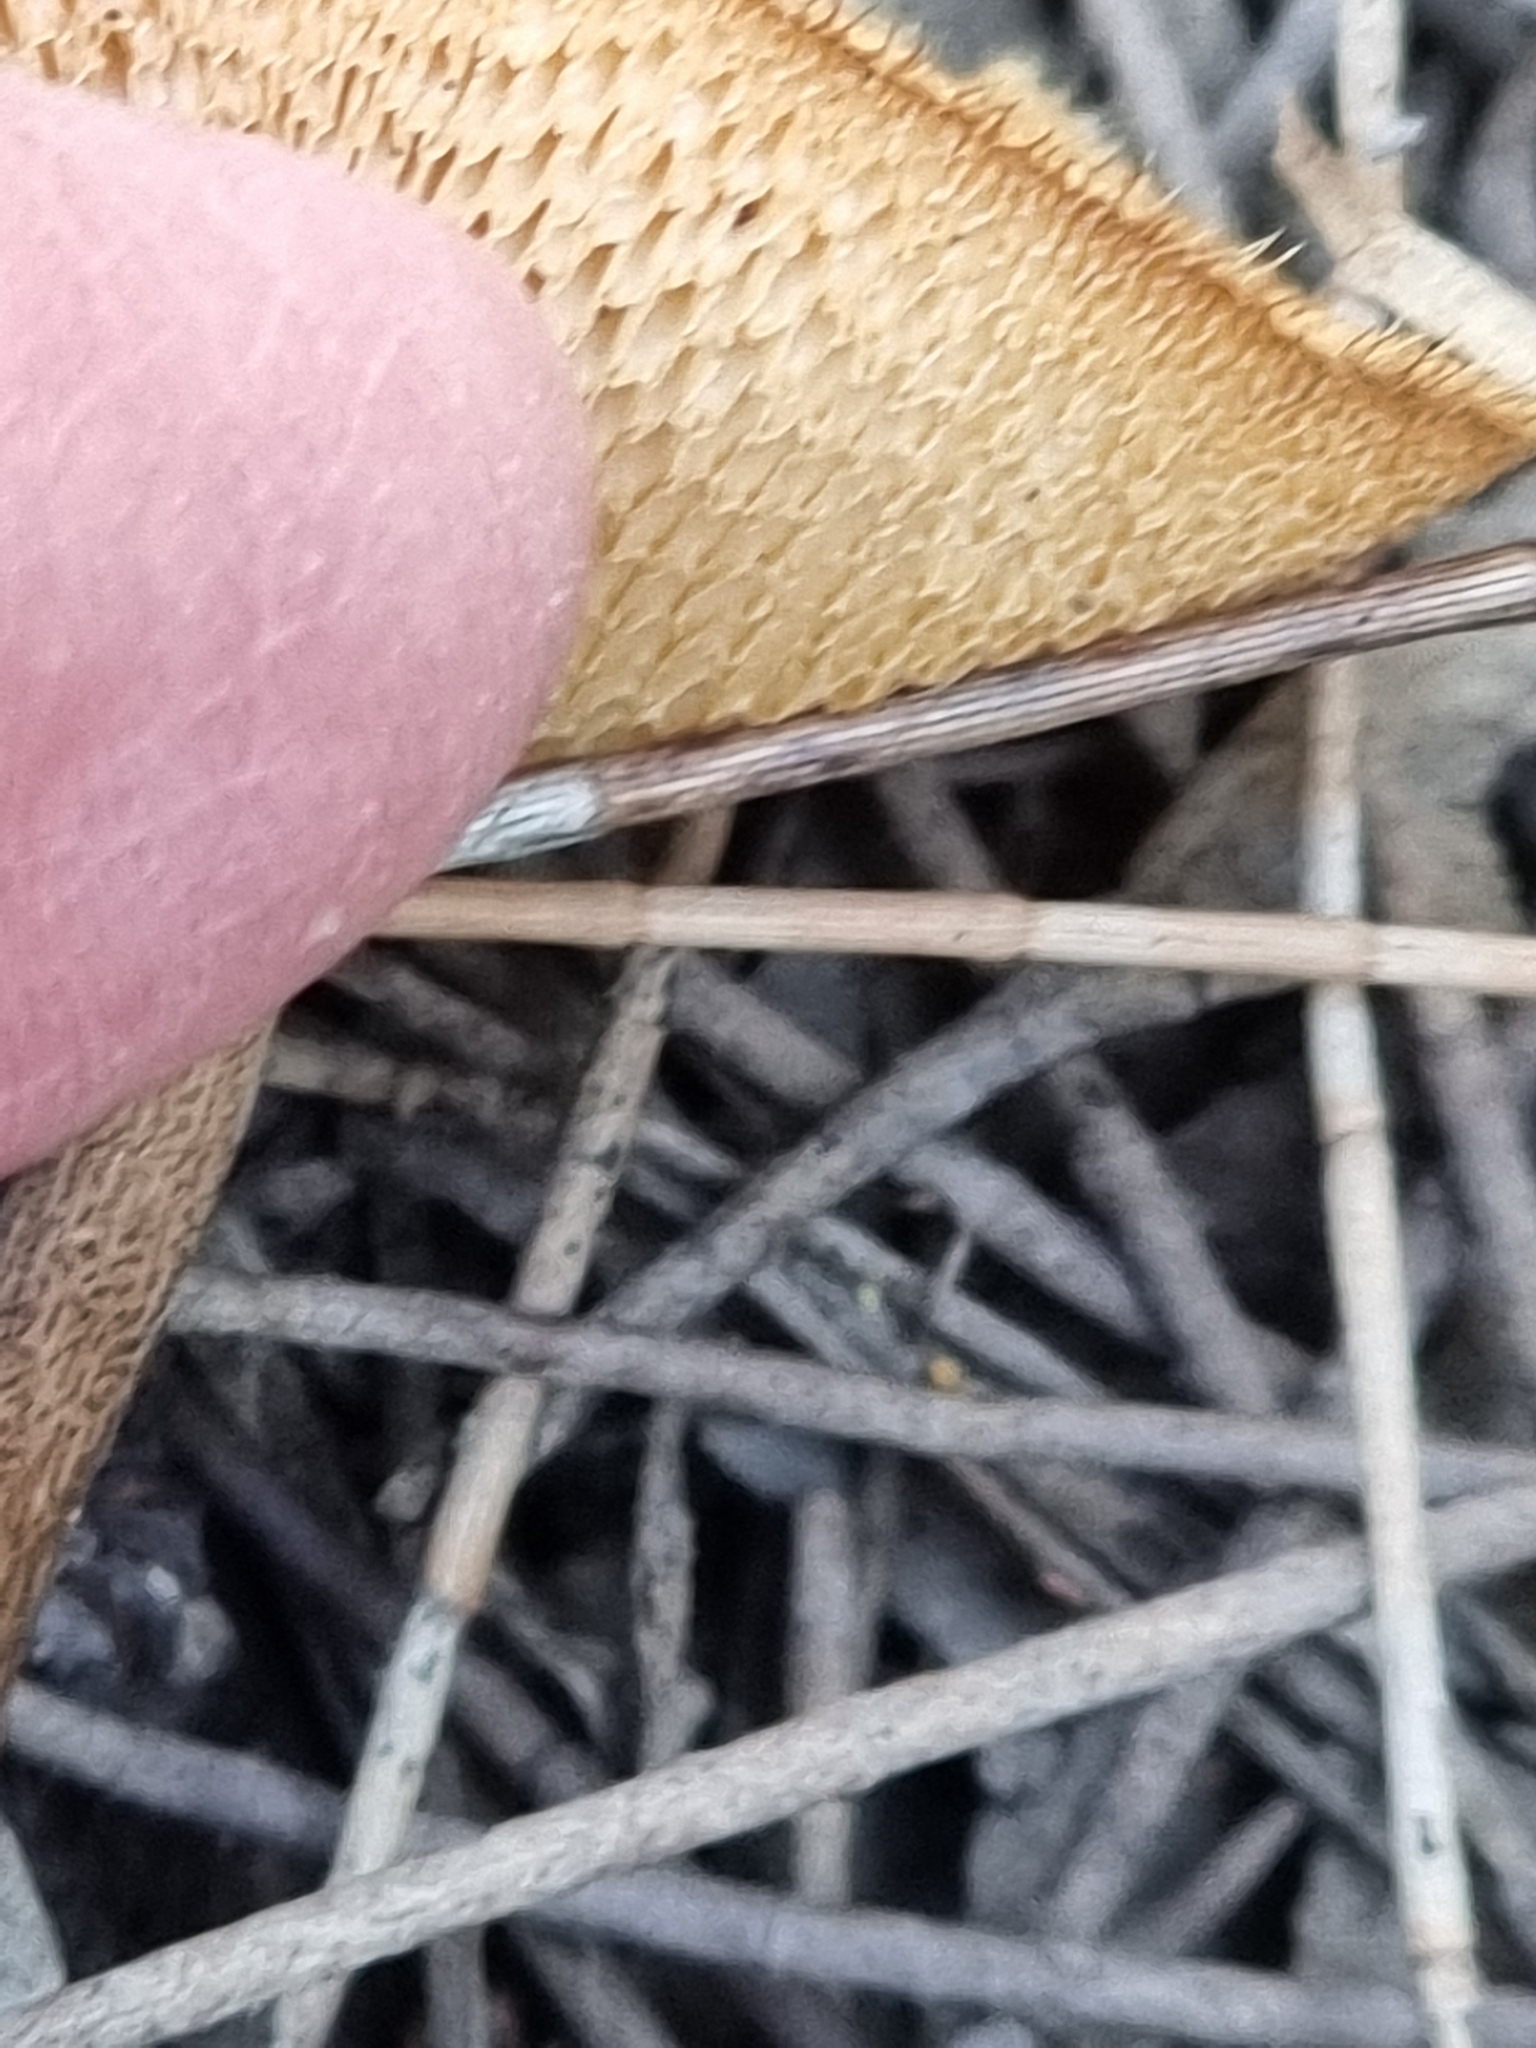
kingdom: Fungi
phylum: Basidiomycota
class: Agaricomycetes
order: Polyporales
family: Polyporaceae
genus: Lentinus
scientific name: Lentinus arcularius
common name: Spring polypore
